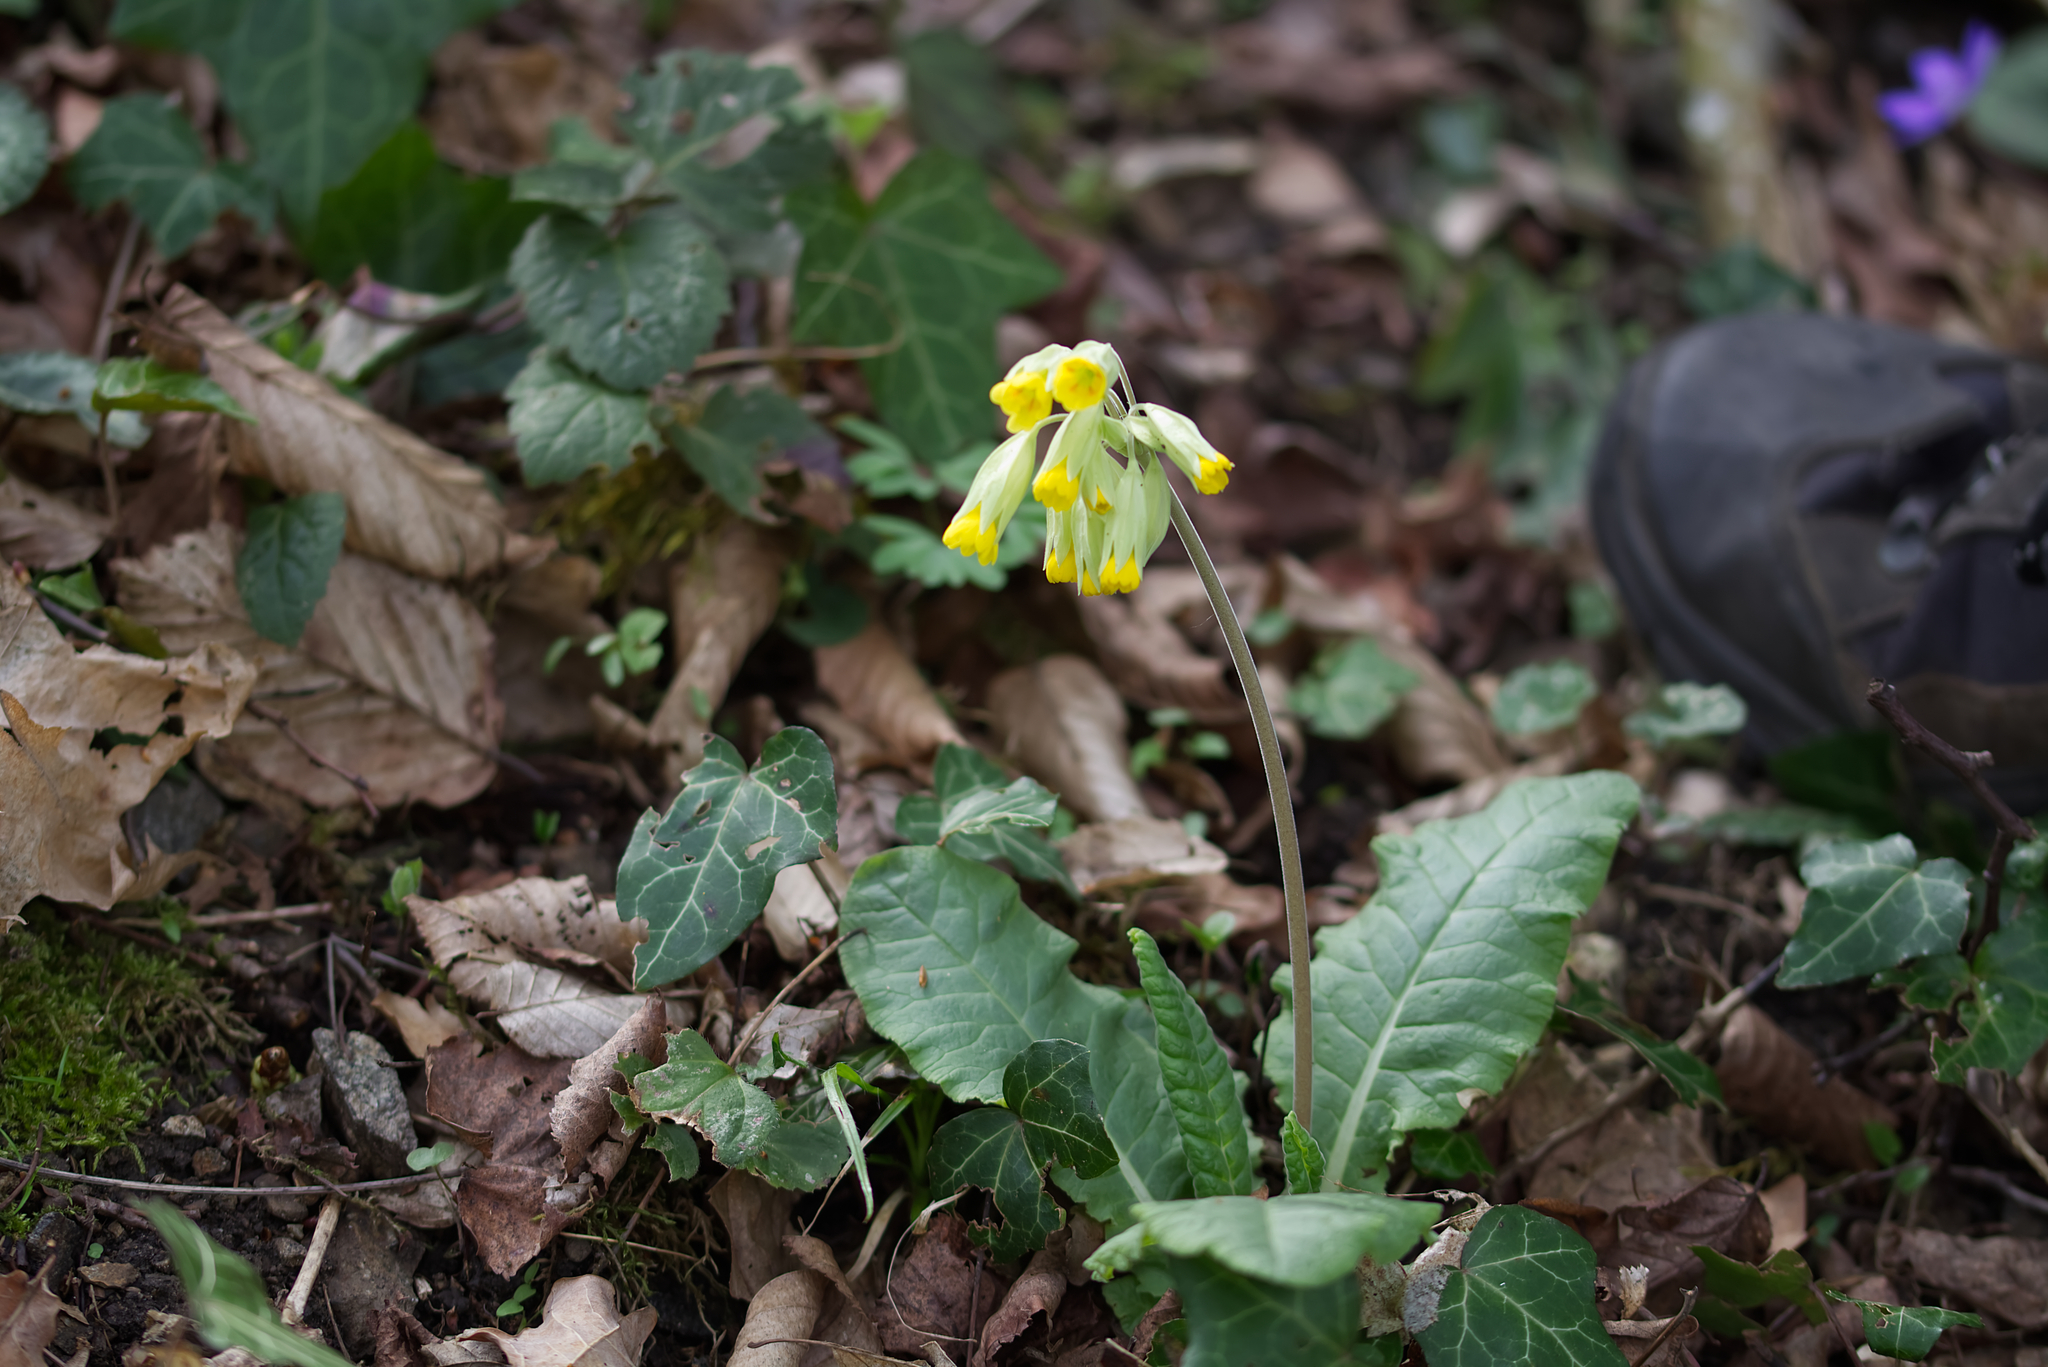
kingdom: Plantae
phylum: Tracheophyta
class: Magnoliopsida
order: Ericales
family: Primulaceae
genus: Primula
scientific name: Primula veris
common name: Cowslip
